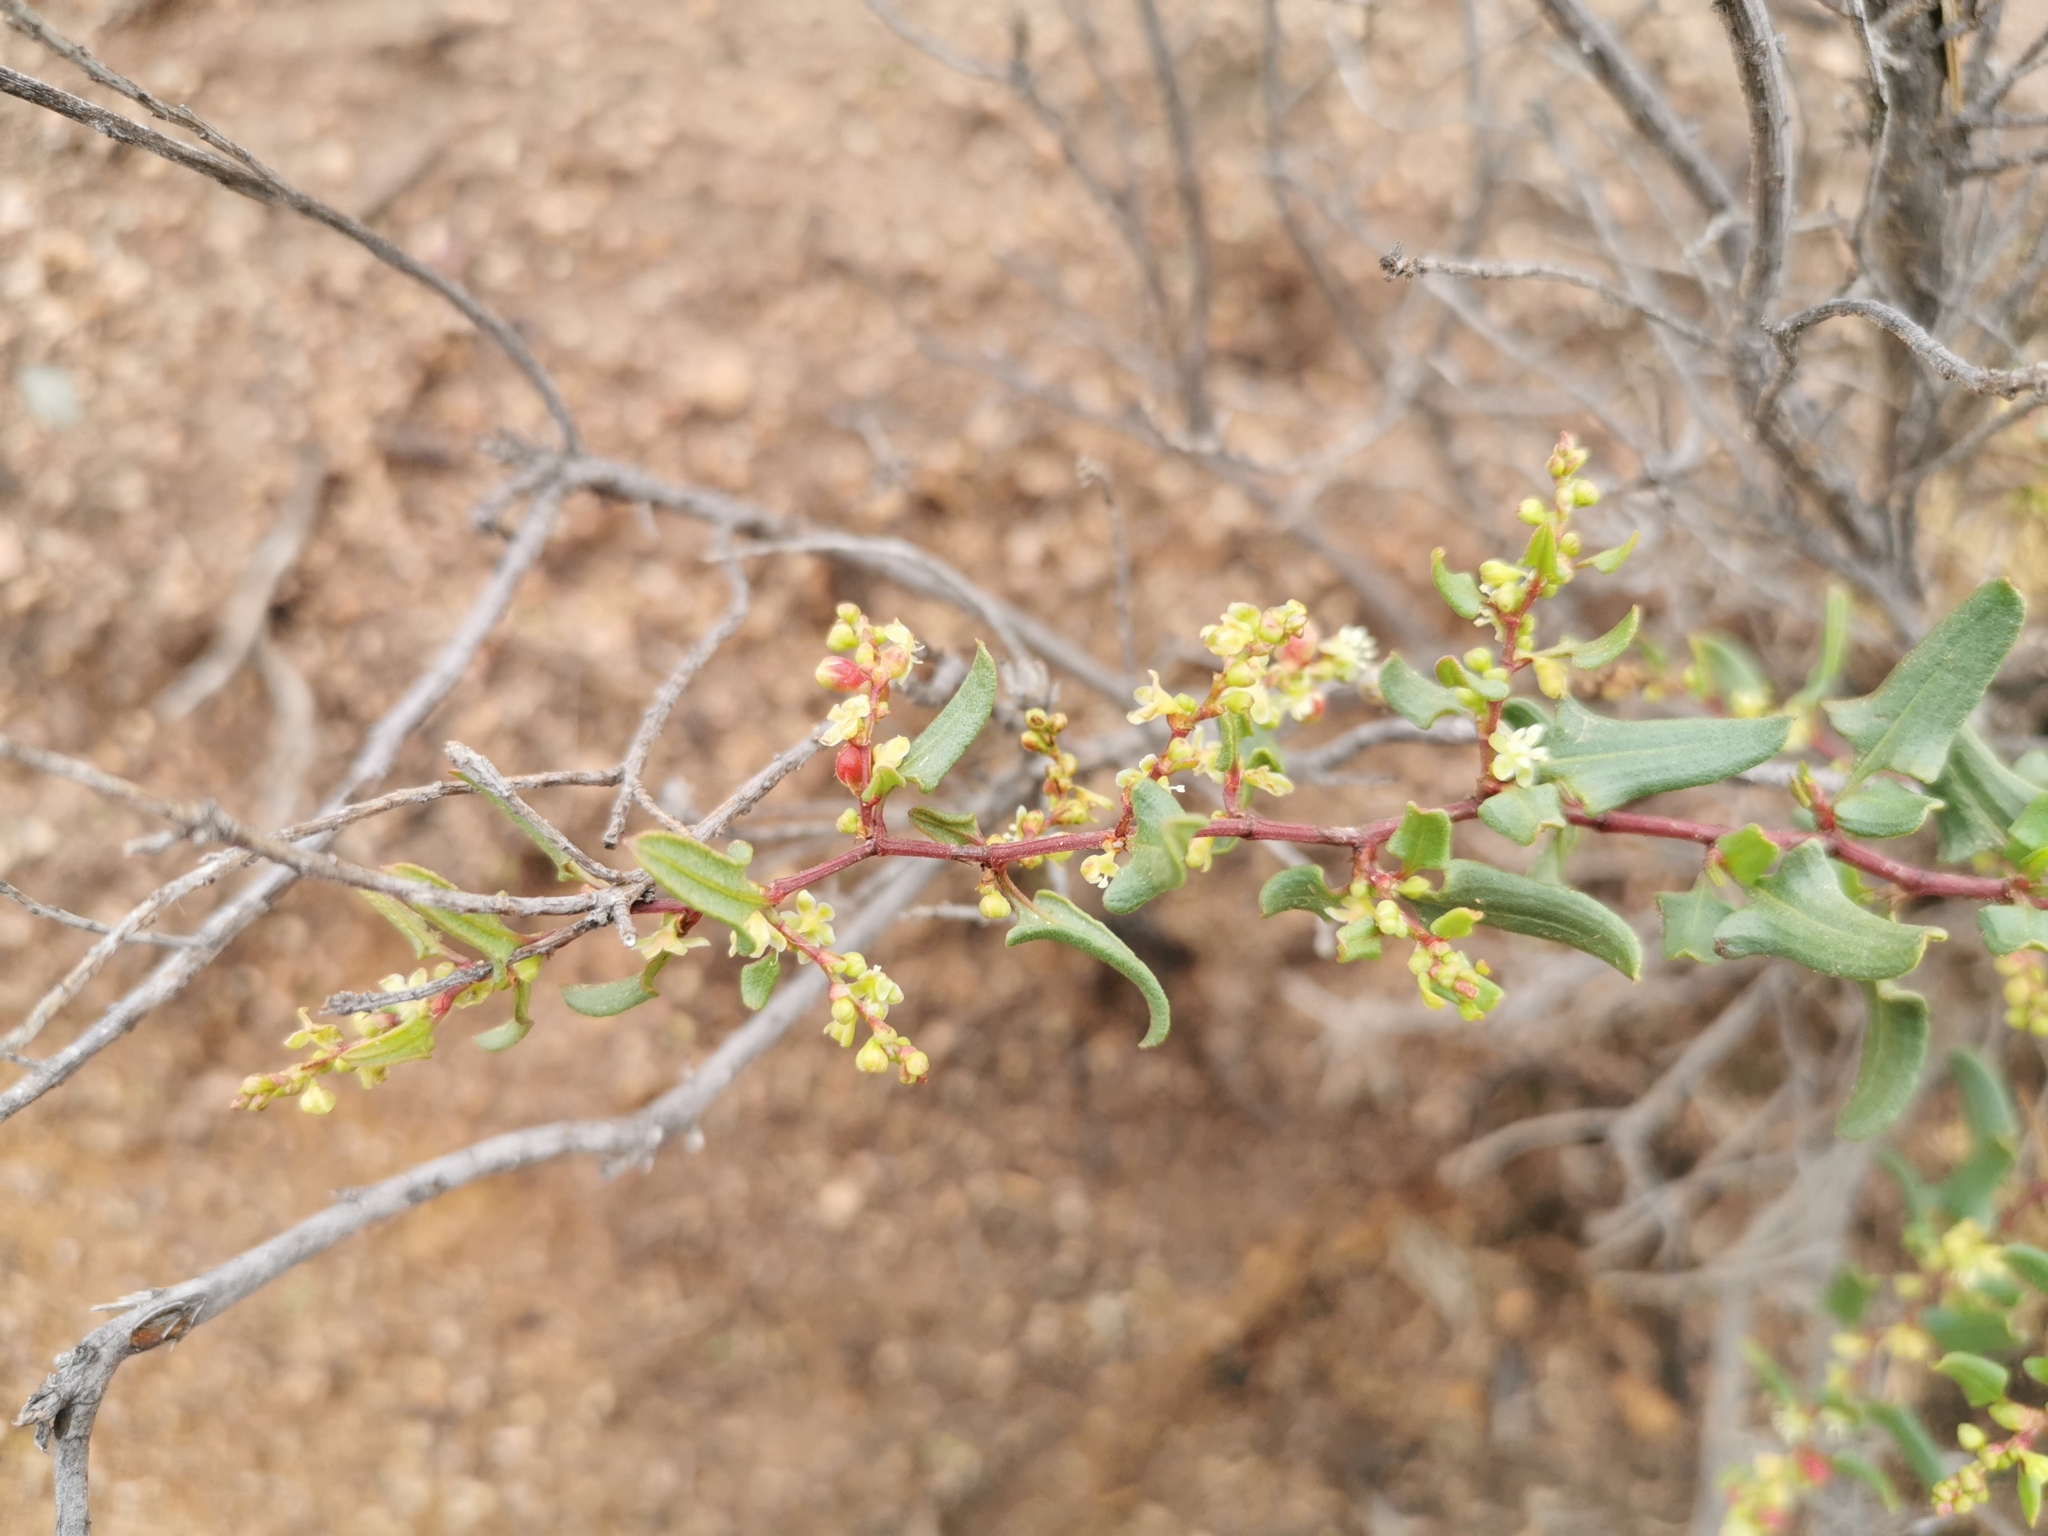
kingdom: Plantae
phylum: Tracheophyta
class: Magnoliopsida
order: Caryophyllales
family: Polygonaceae
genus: Muehlenbeckia
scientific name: Muehlenbeckia hastulata
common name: Wirevine
